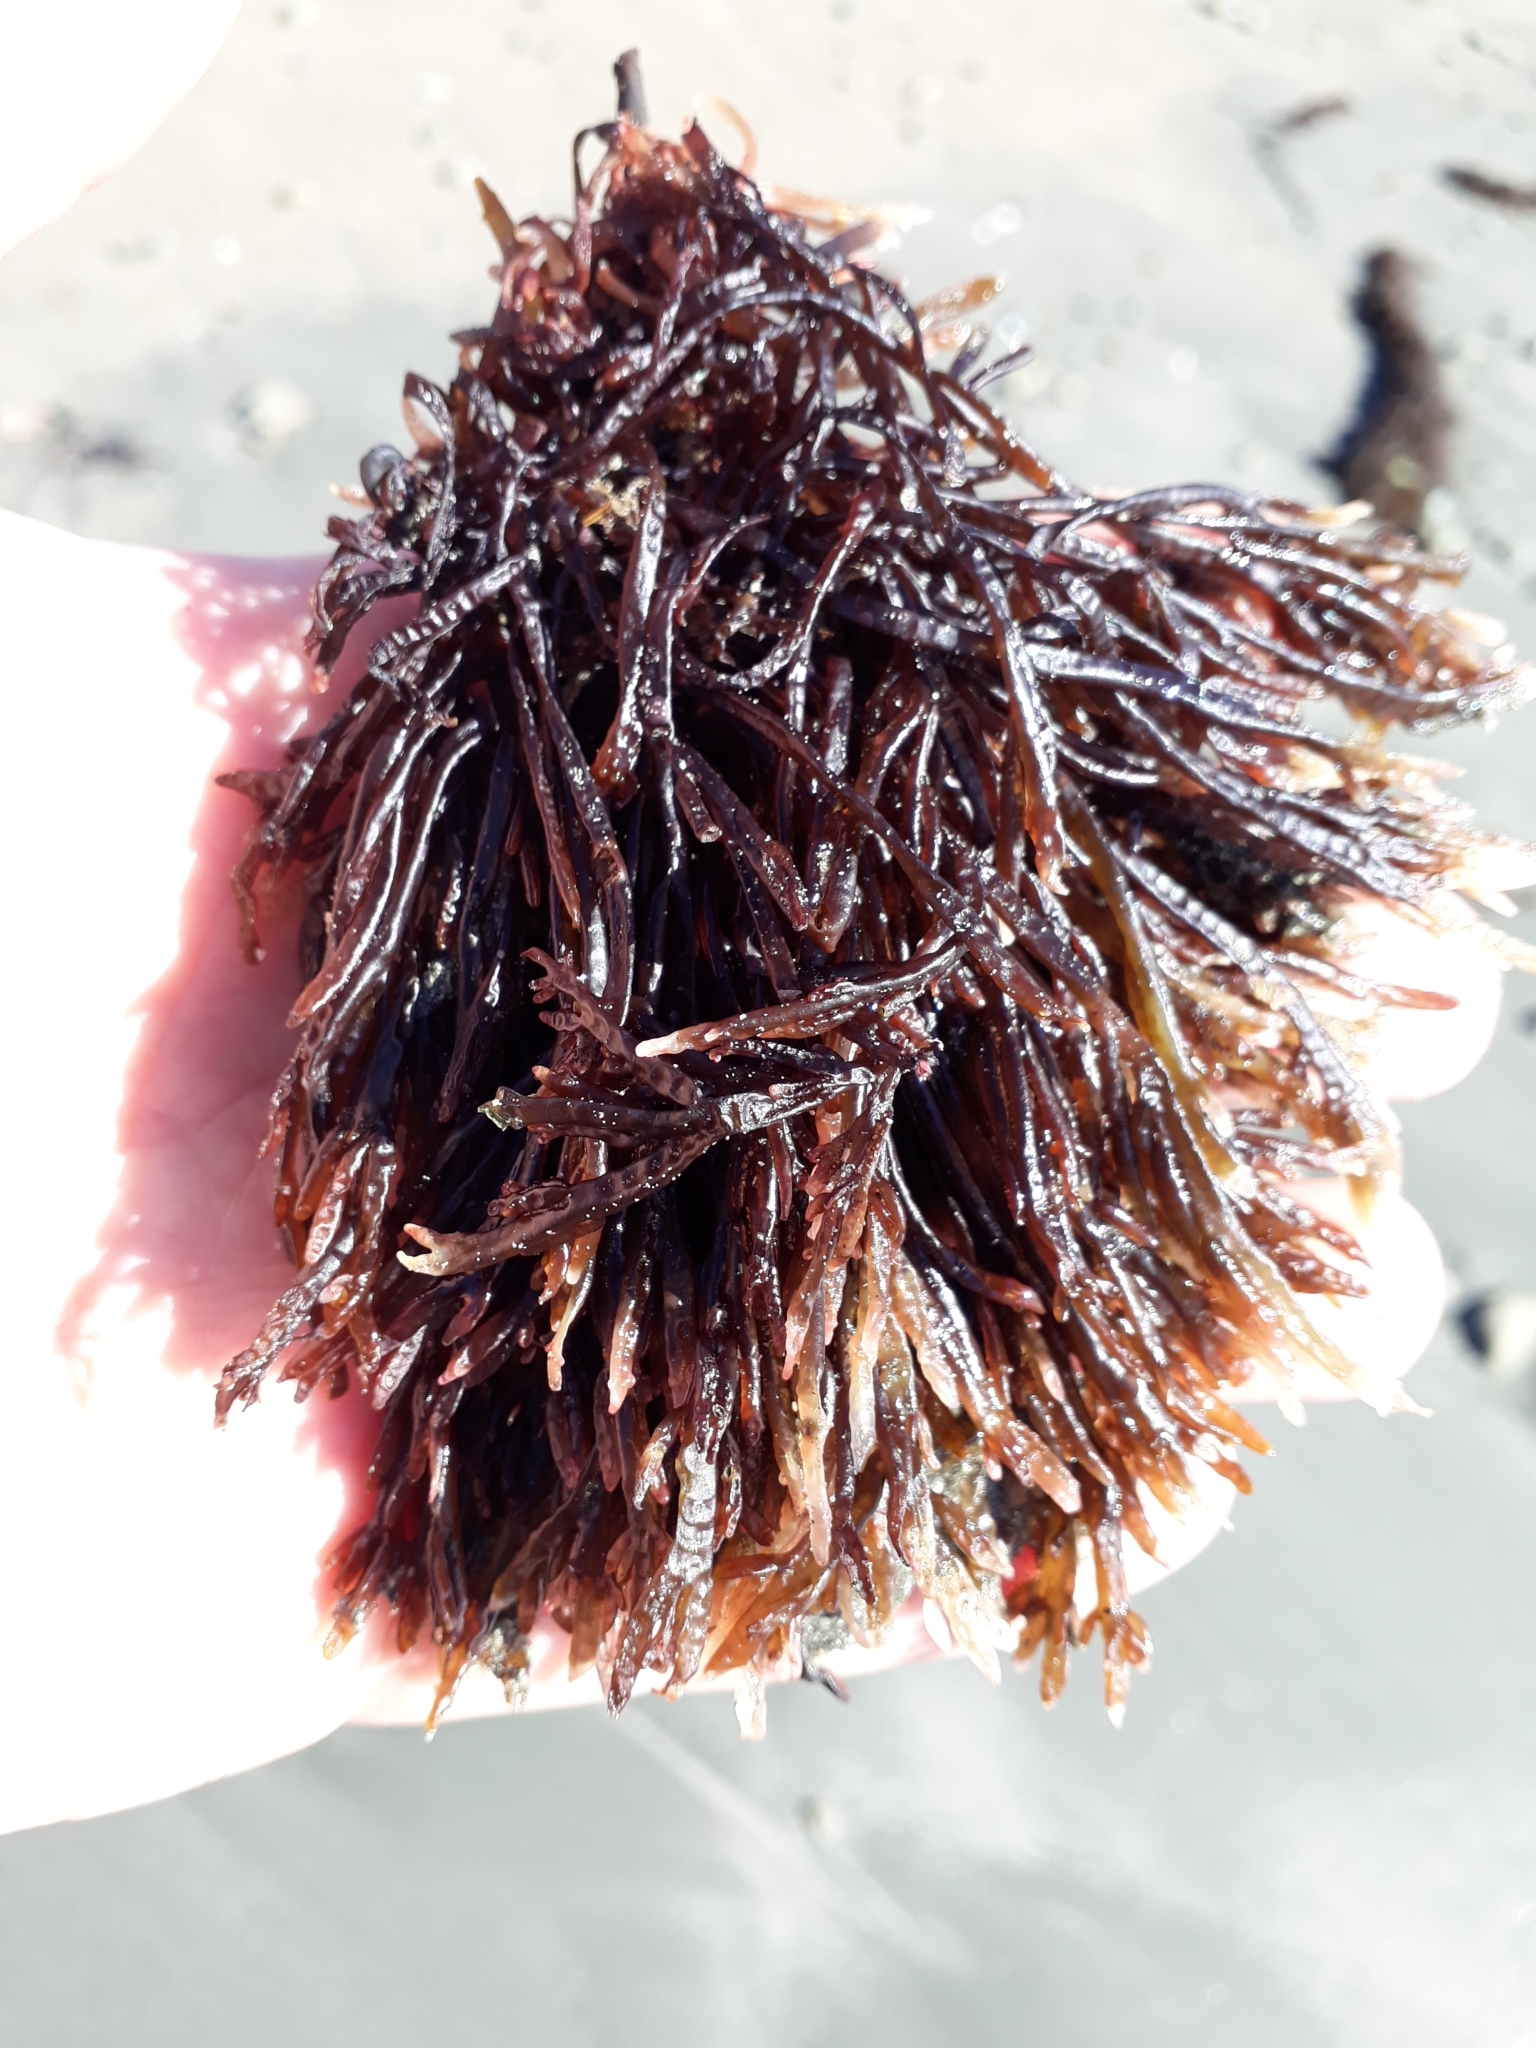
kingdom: Plantae
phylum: Rhodophyta
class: Florideophyceae
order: Rhodymeniales
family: Champiaceae
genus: Champia
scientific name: Champia novae-zelandiae
